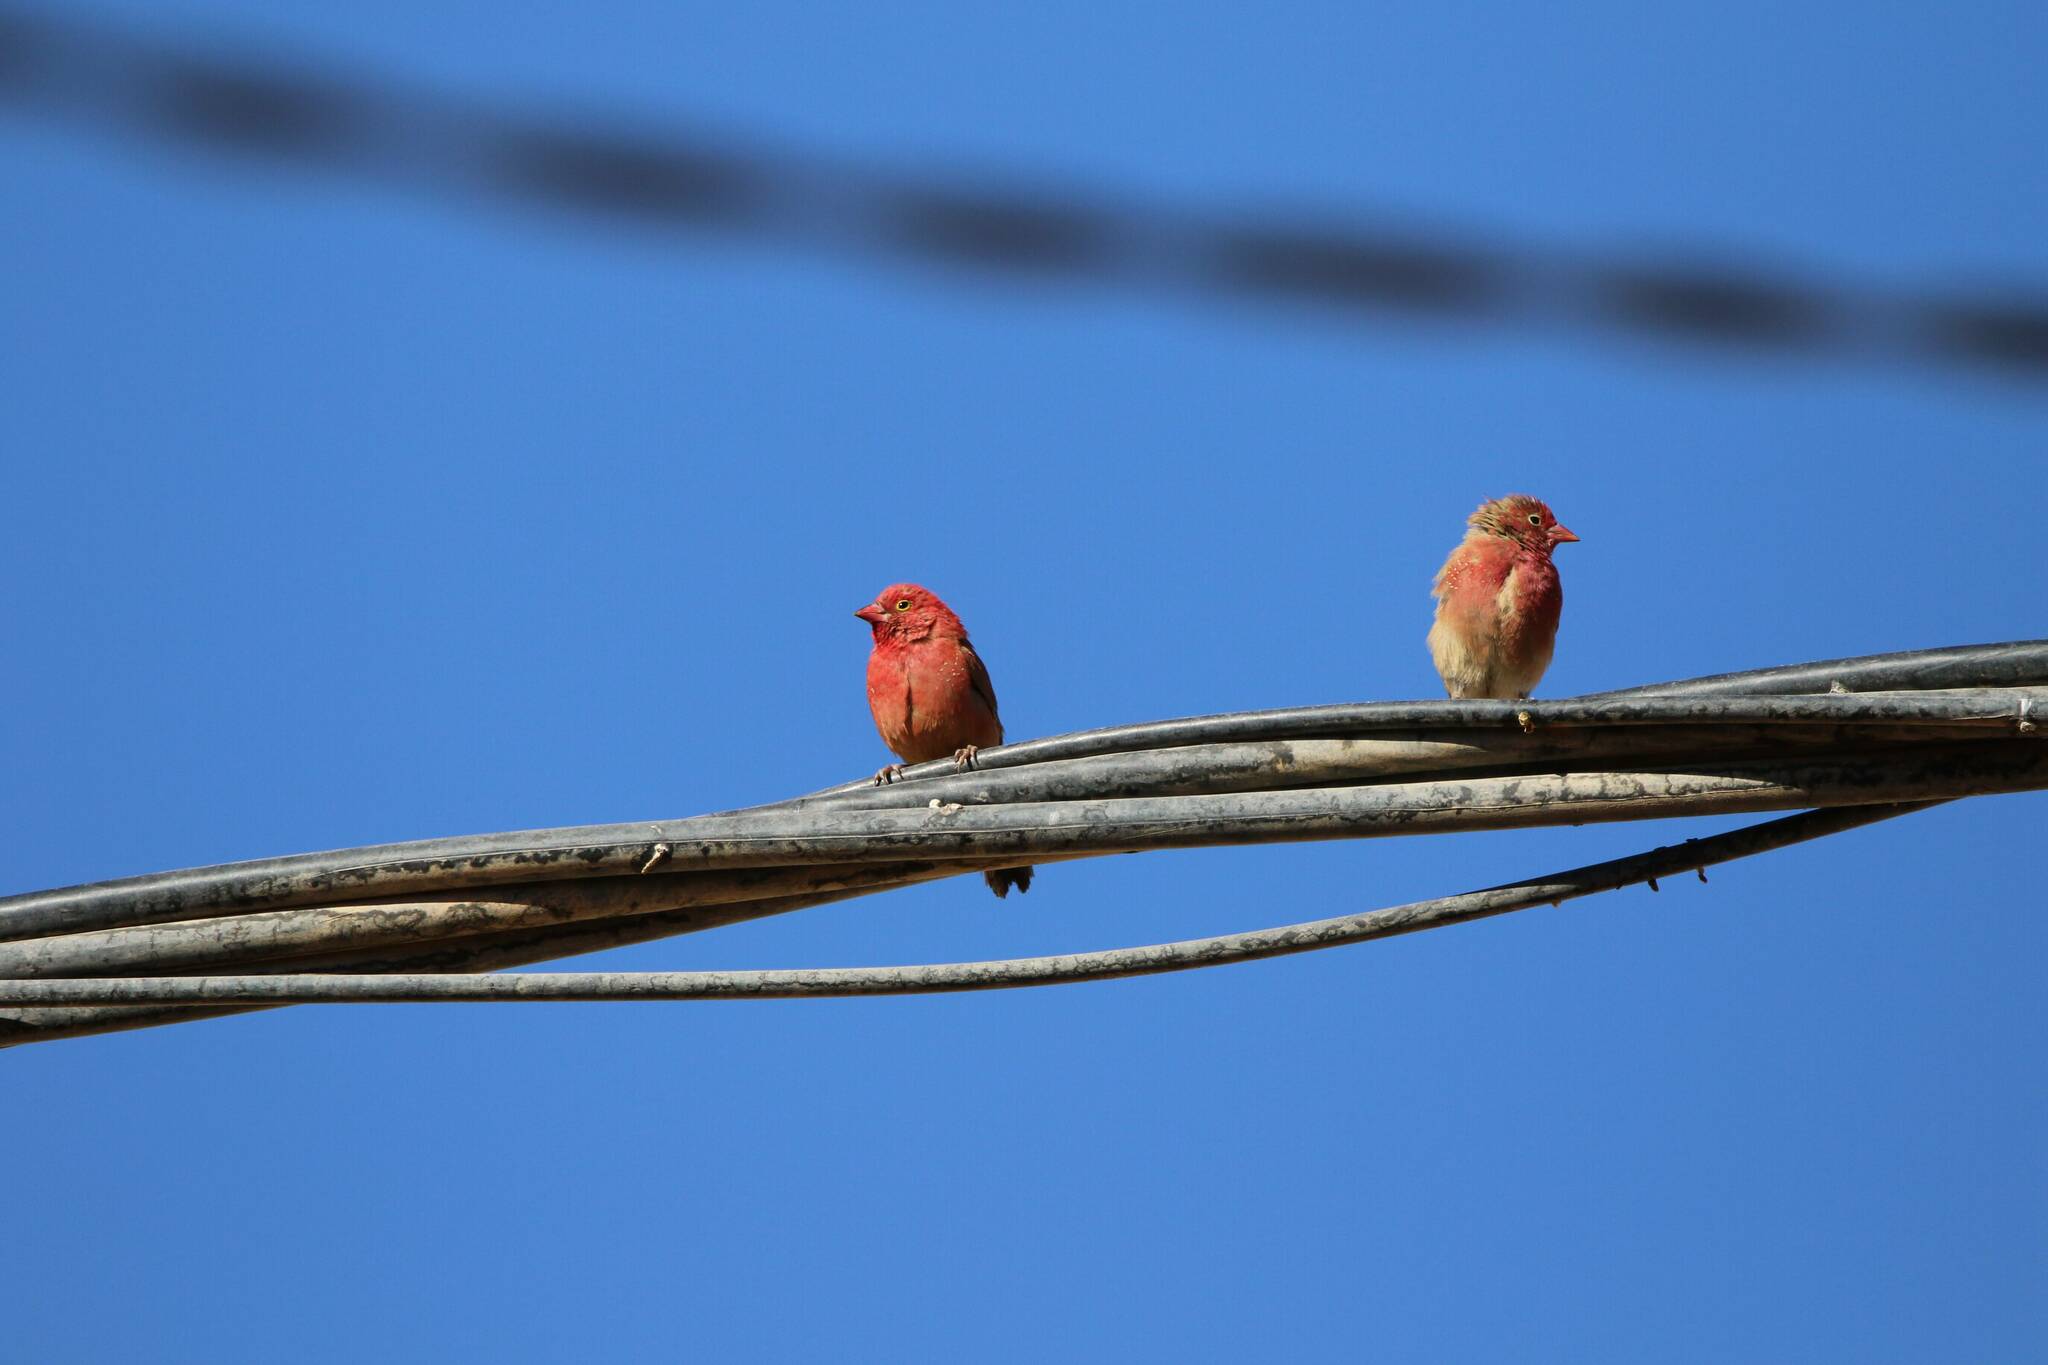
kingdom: Animalia
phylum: Chordata
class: Aves
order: Passeriformes
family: Estrildidae
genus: Lagonosticta
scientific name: Lagonosticta senegala
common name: Red-billed firefinch
